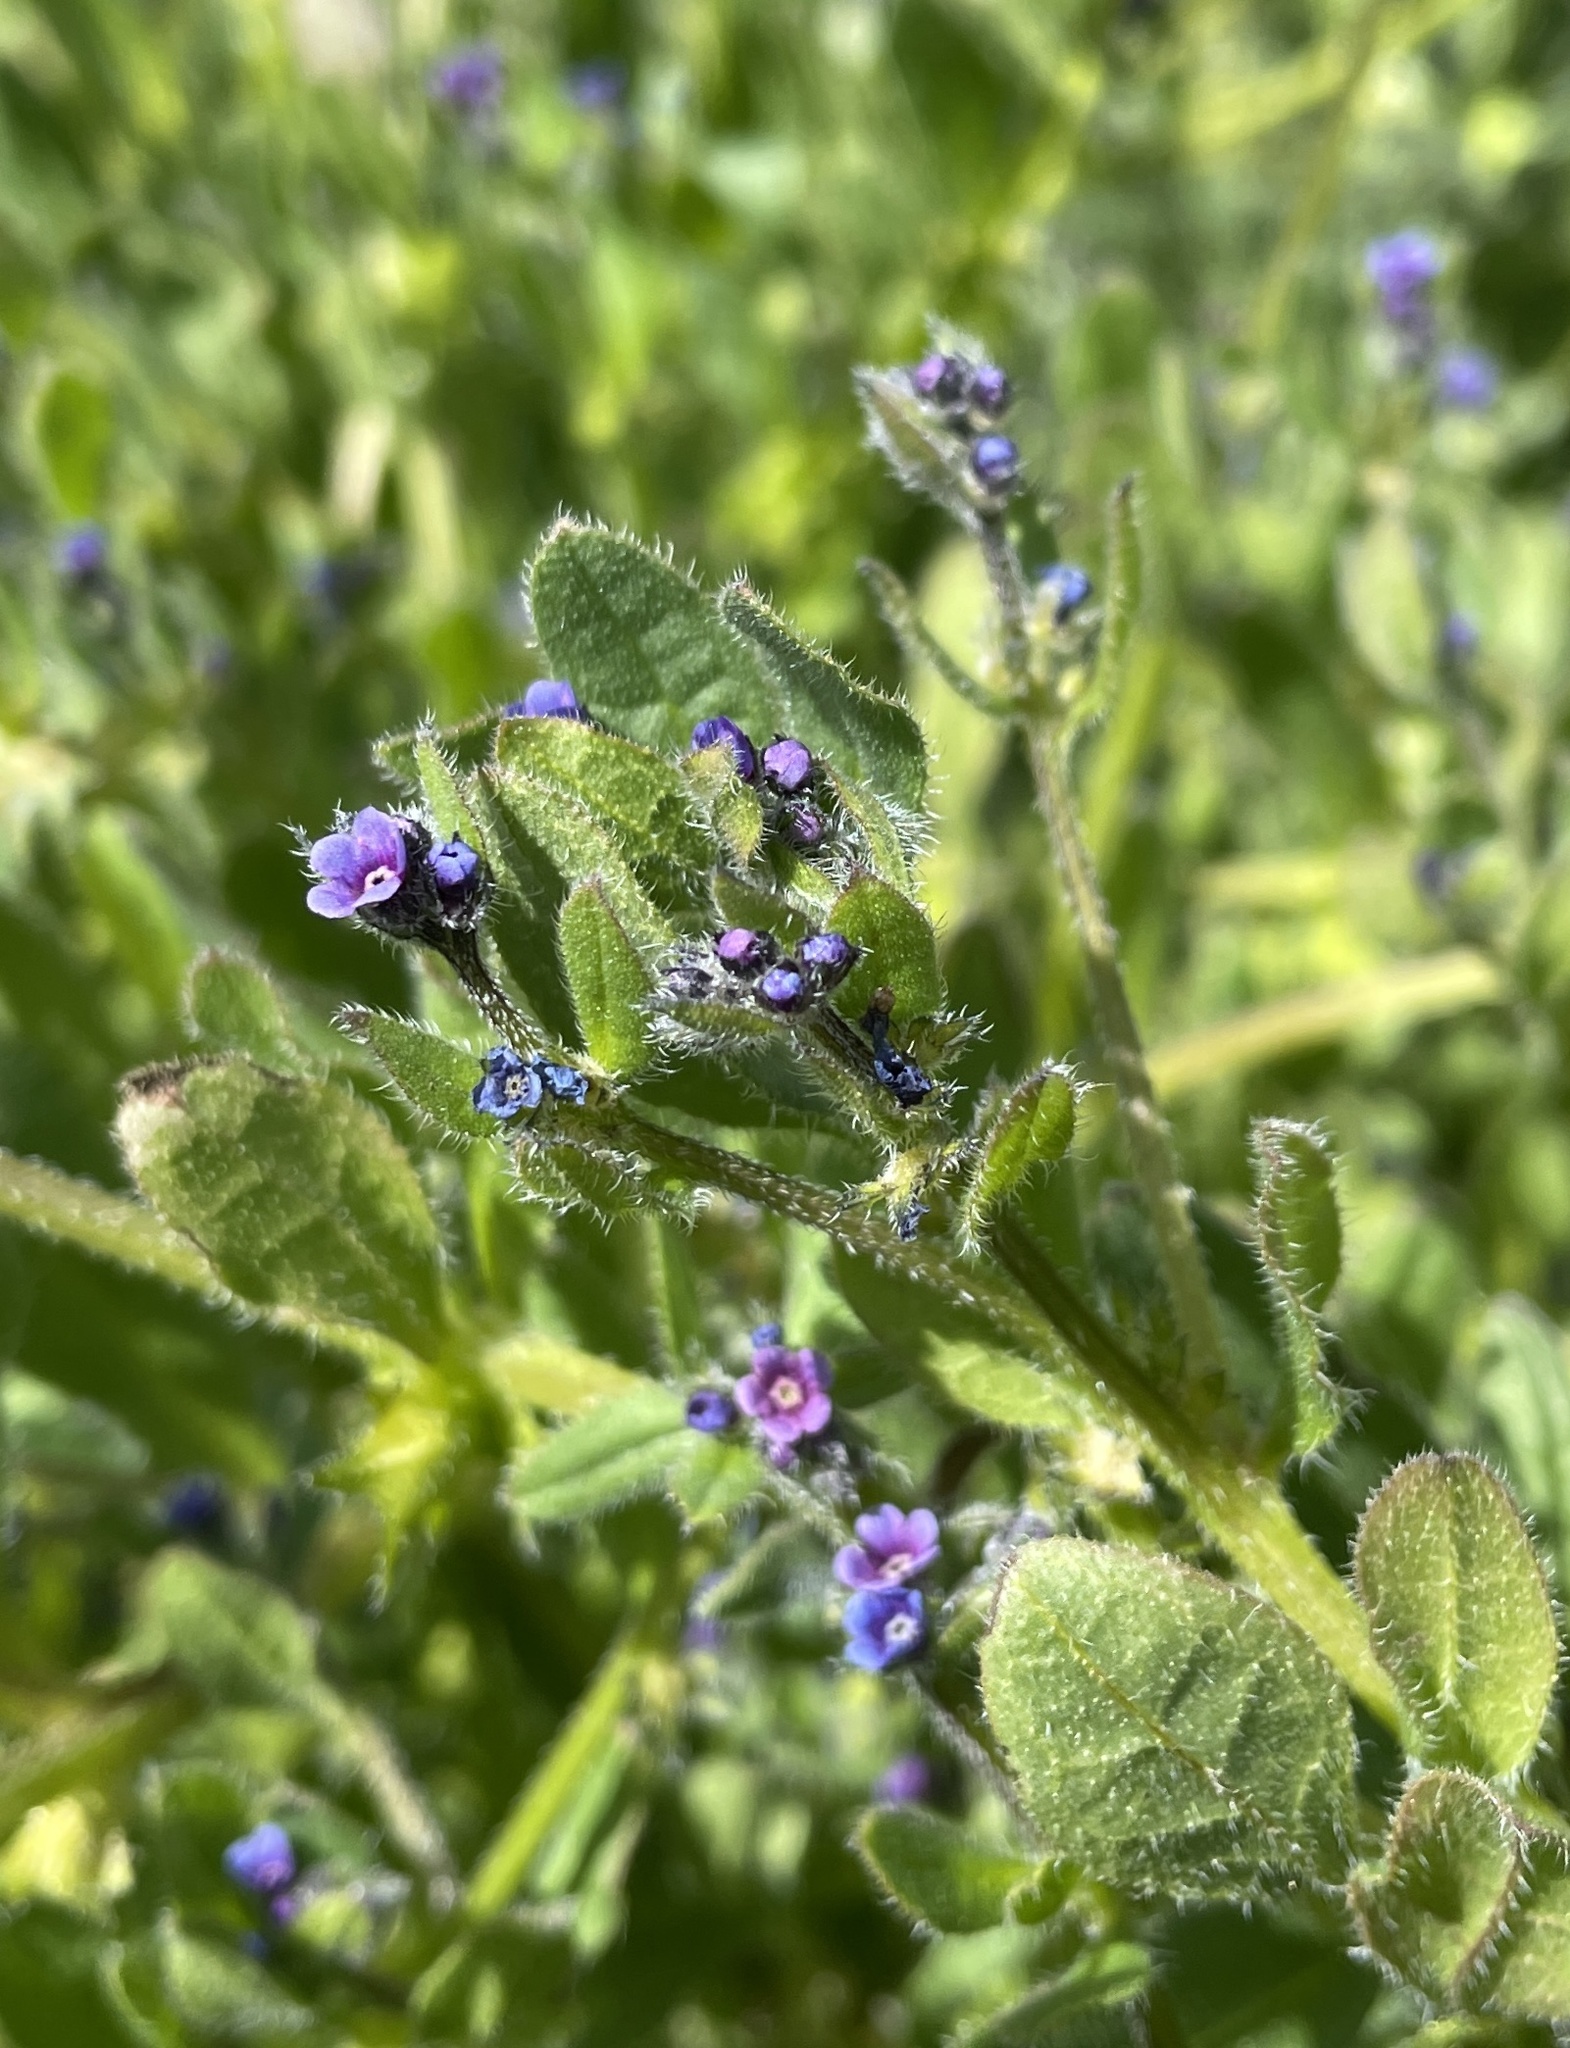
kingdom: Plantae
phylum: Tracheophyta
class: Magnoliopsida
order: Boraginales
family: Boraginaceae
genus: Asperugo
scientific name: Asperugo procumbens
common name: Madwort
